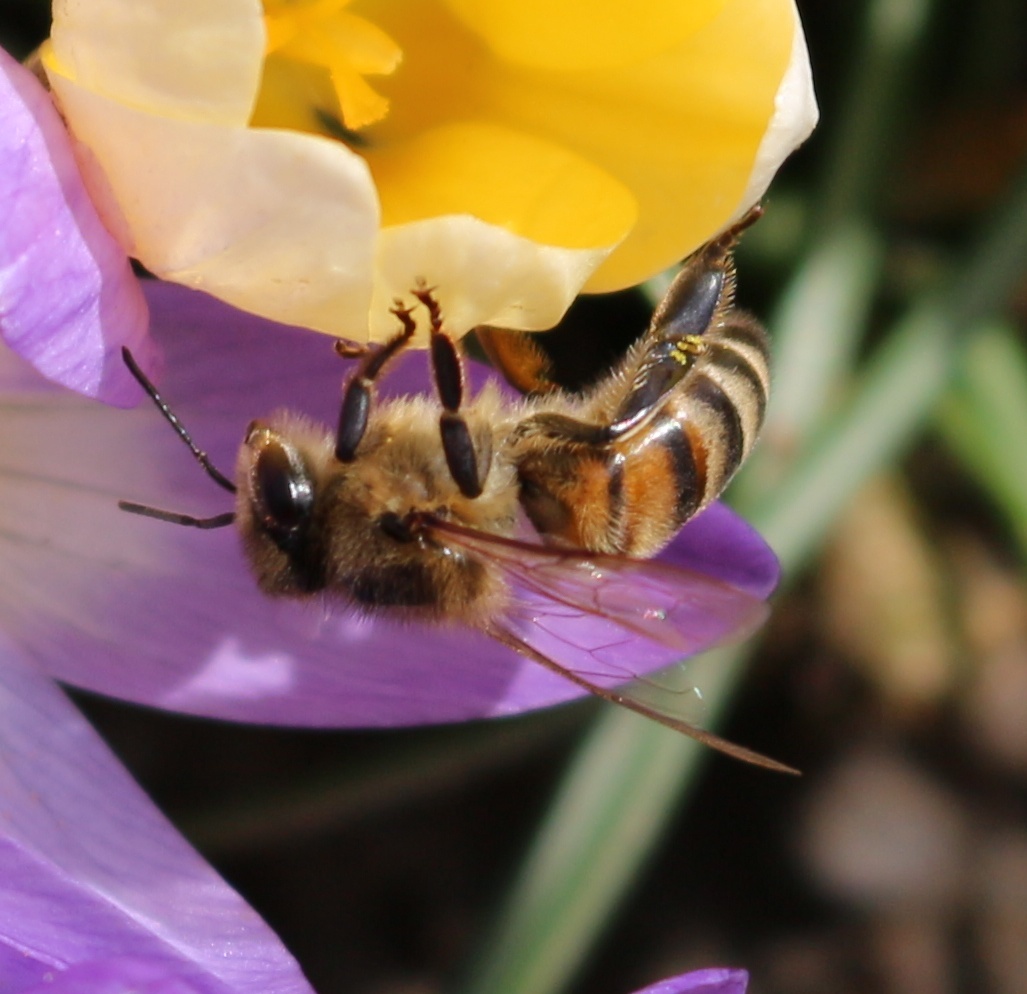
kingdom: Animalia
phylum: Arthropoda
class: Insecta
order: Hymenoptera
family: Apidae
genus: Apis
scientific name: Apis mellifera
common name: Honey bee
